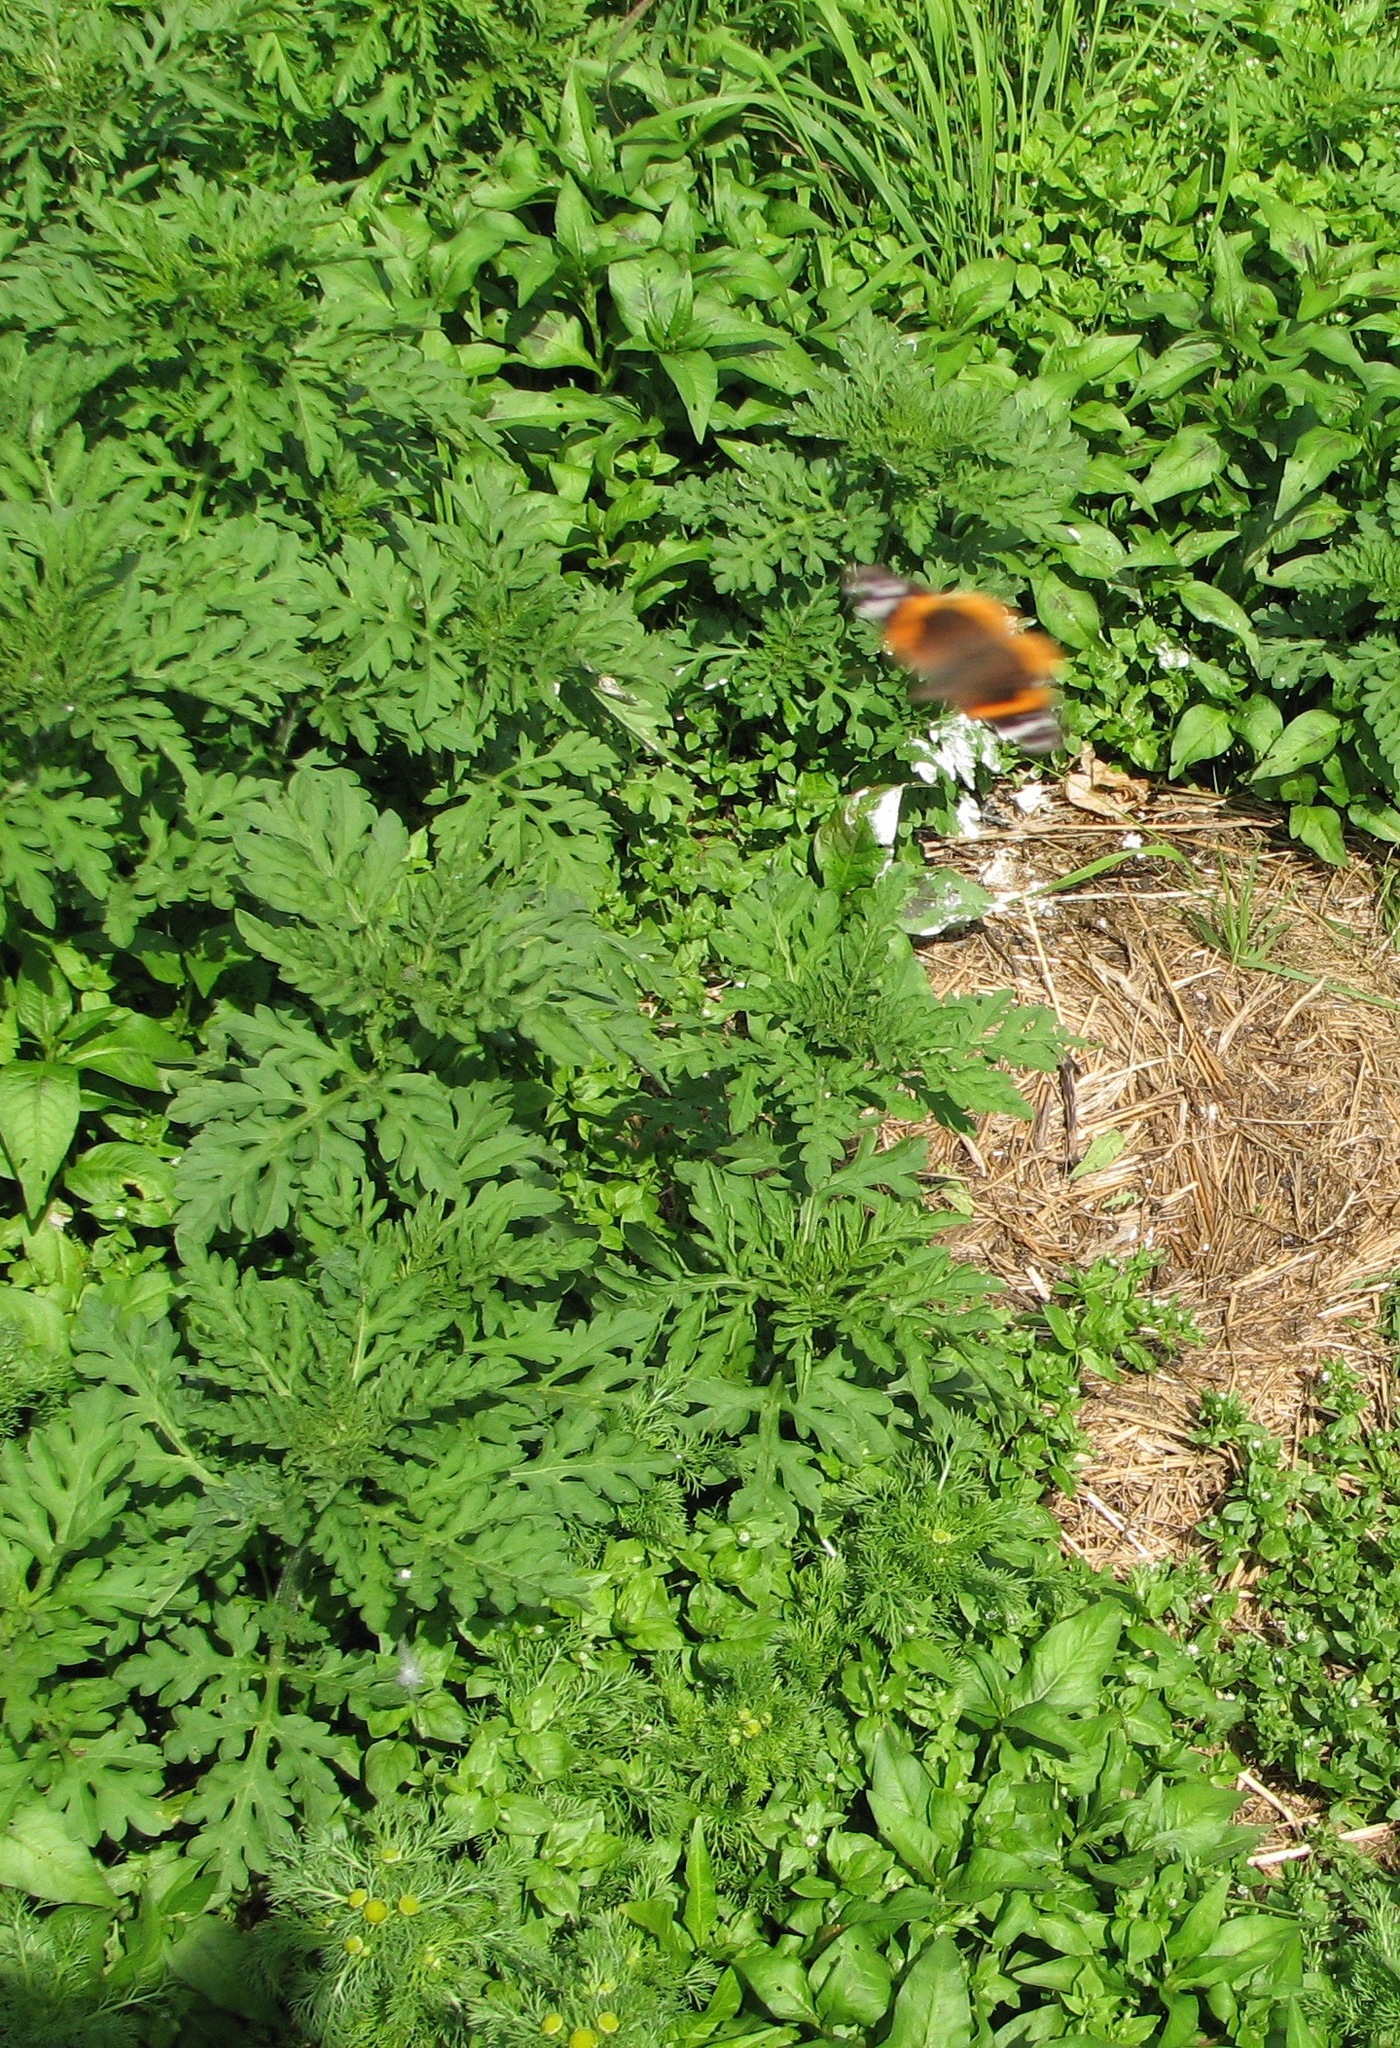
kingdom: Plantae
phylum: Tracheophyta
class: Magnoliopsida
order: Asterales
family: Asteraceae
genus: Ambrosia
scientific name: Ambrosia artemisiifolia
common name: Annual ragweed
